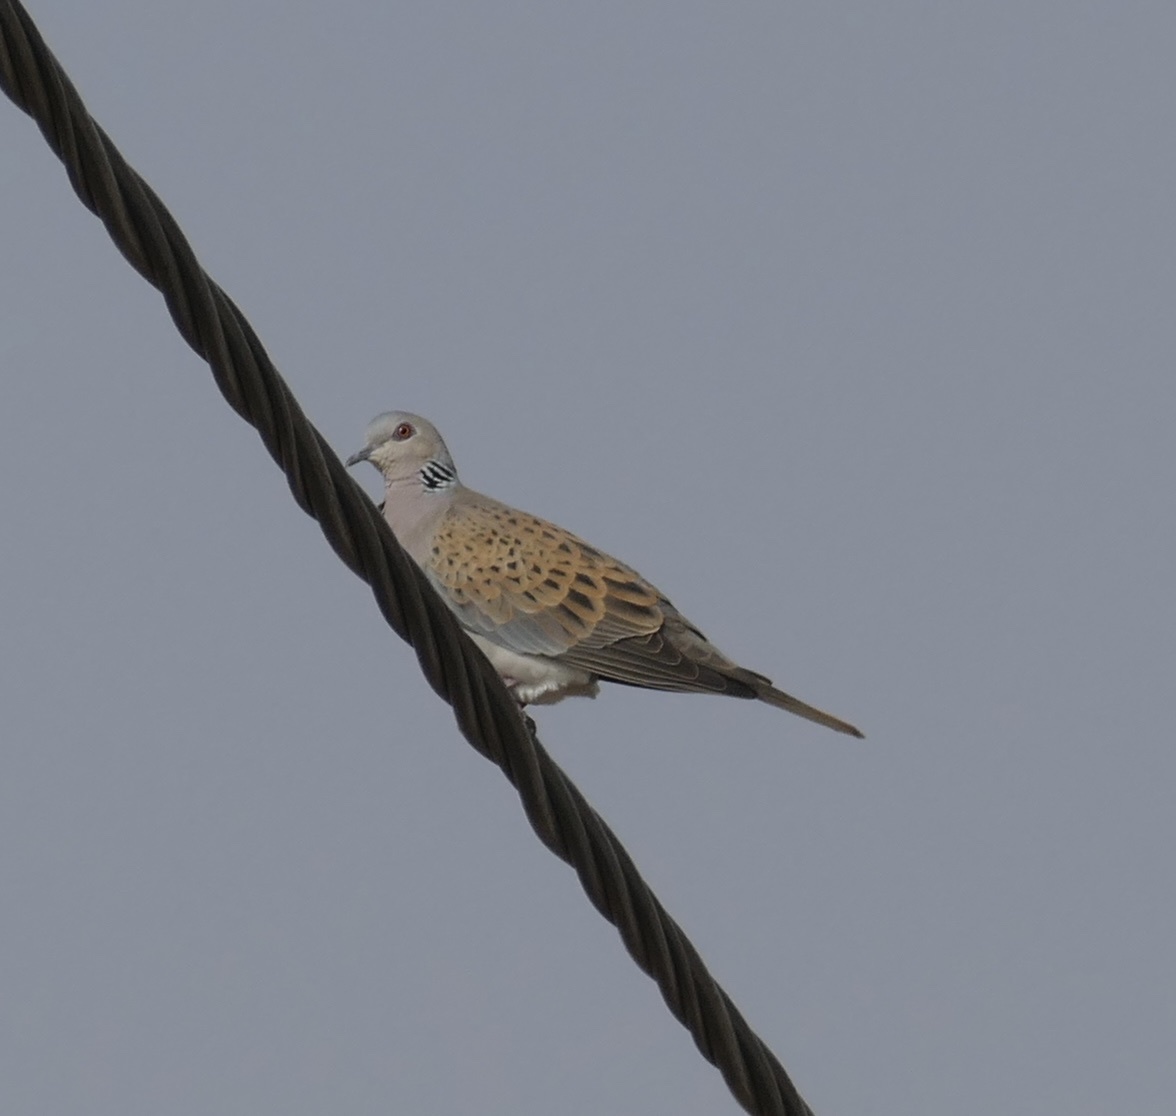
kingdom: Animalia
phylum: Chordata
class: Aves
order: Columbiformes
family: Columbidae
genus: Streptopelia
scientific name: Streptopelia turtur
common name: European turtle dove
